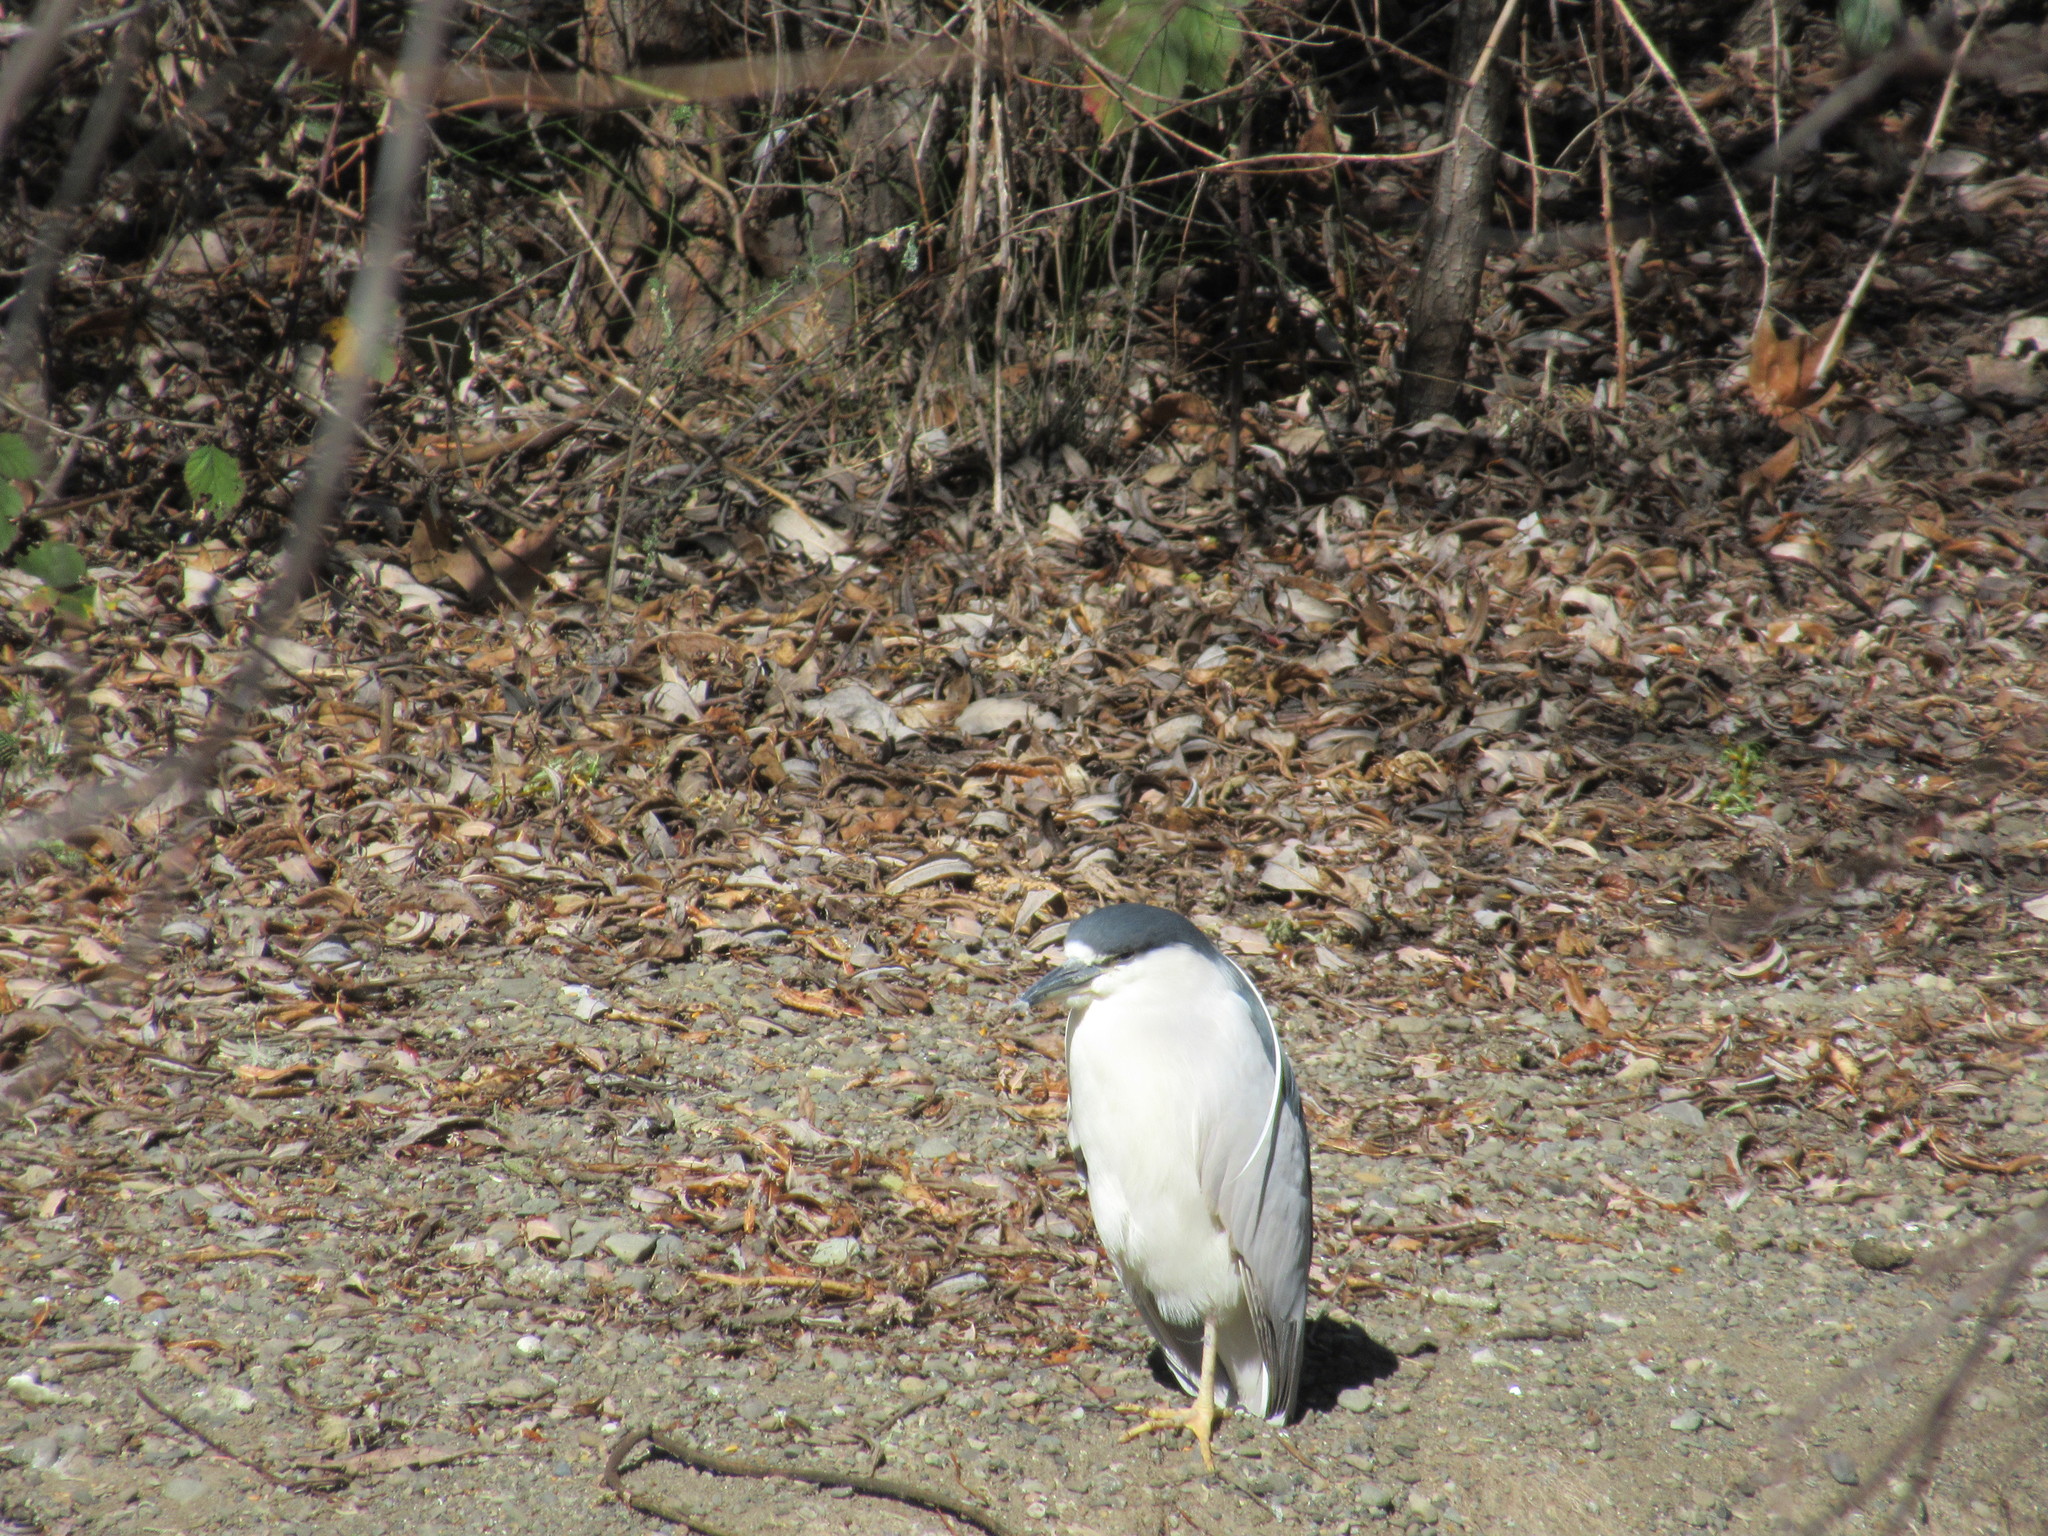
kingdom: Animalia
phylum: Chordata
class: Aves
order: Pelecaniformes
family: Ardeidae
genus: Nycticorax
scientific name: Nycticorax nycticorax
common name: Black-crowned night heron
